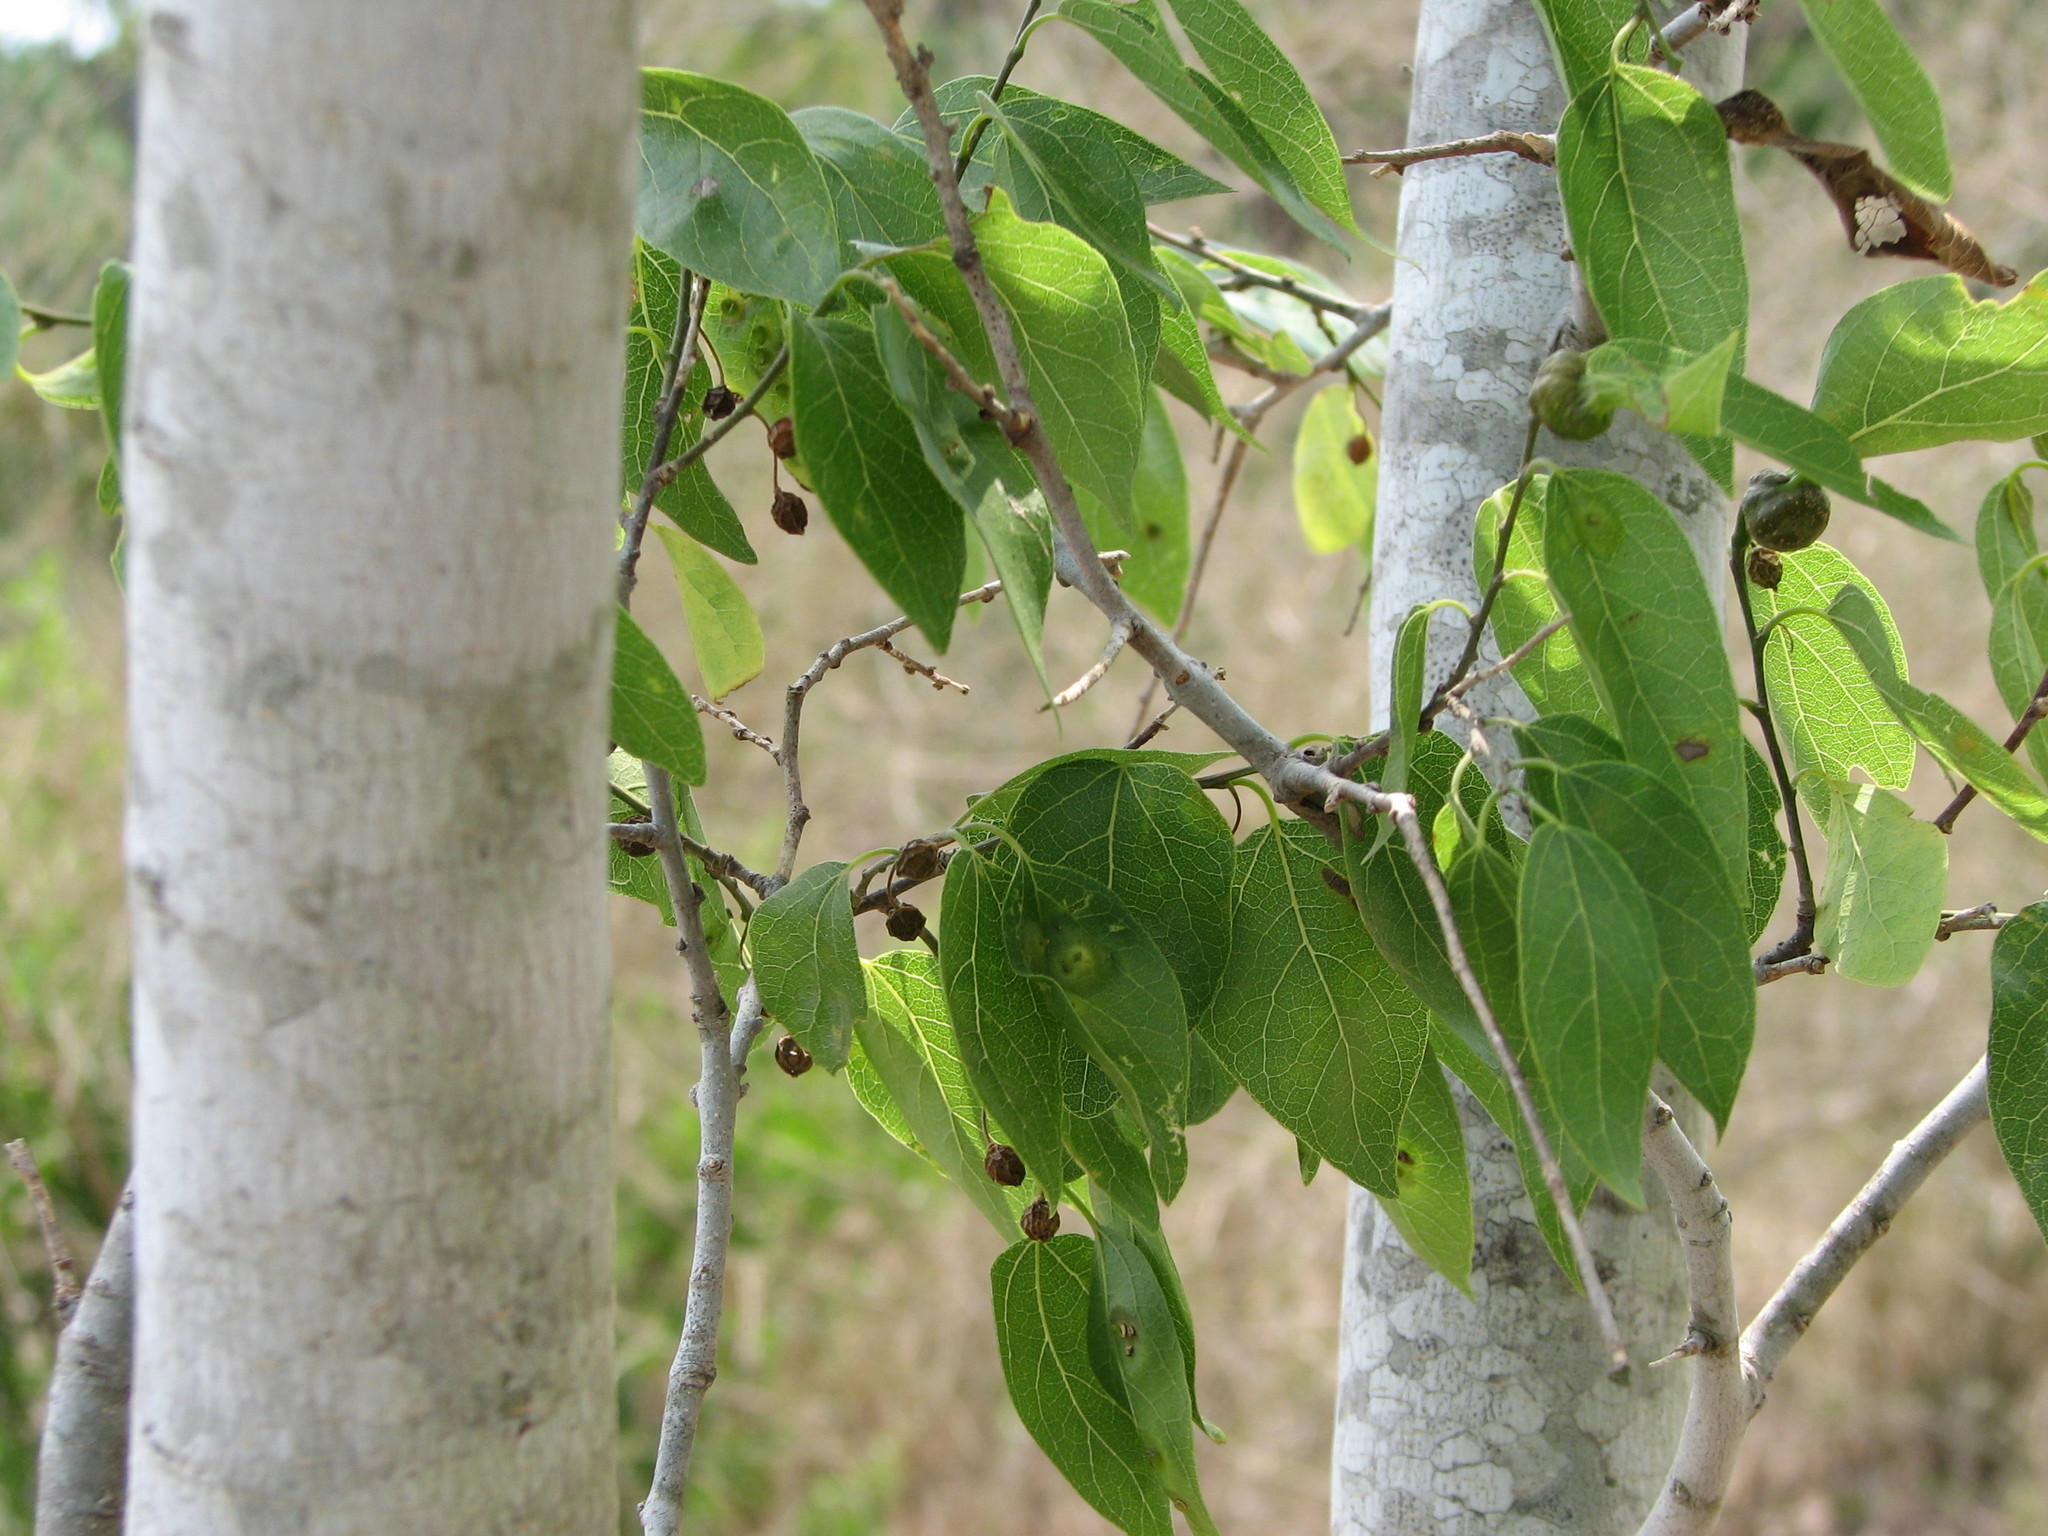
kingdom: Plantae
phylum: Tracheophyta
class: Magnoliopsida
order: Rosales
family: Cannabaceae
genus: Celtis
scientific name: Celtis laevigata
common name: Sugarberry
